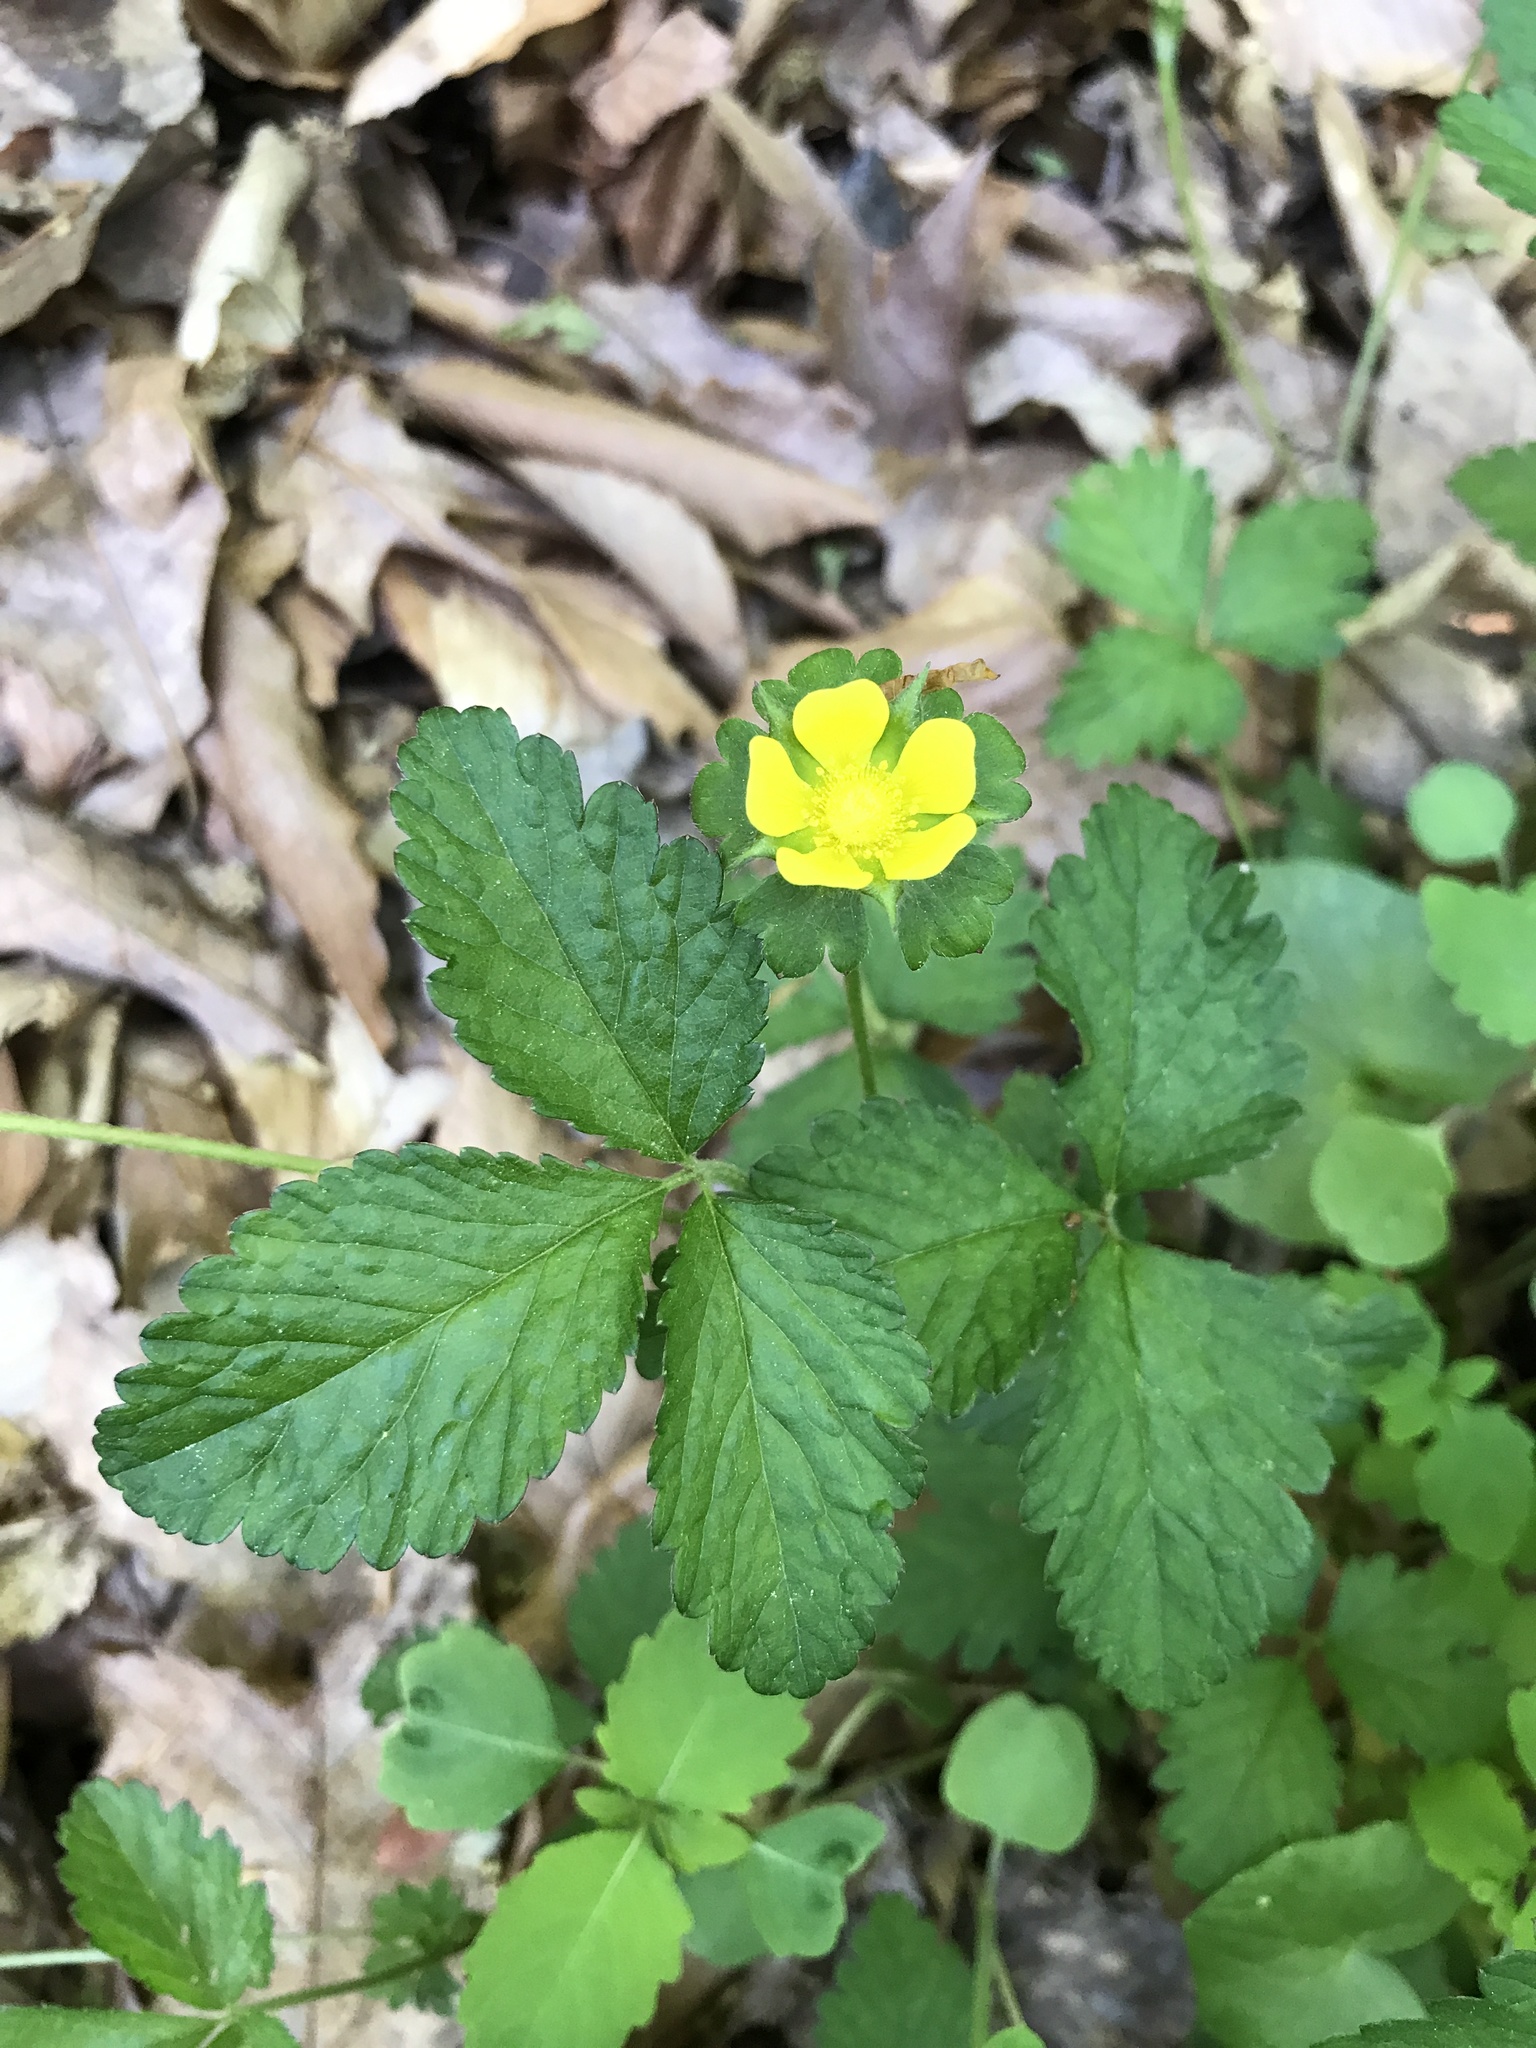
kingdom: Plantae
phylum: Tracheophyta
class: Magnoliopsida
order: Rosales
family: Rosaceae
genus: Potentilla
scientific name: Potentilla indica
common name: Yellow-flowered strawberry
